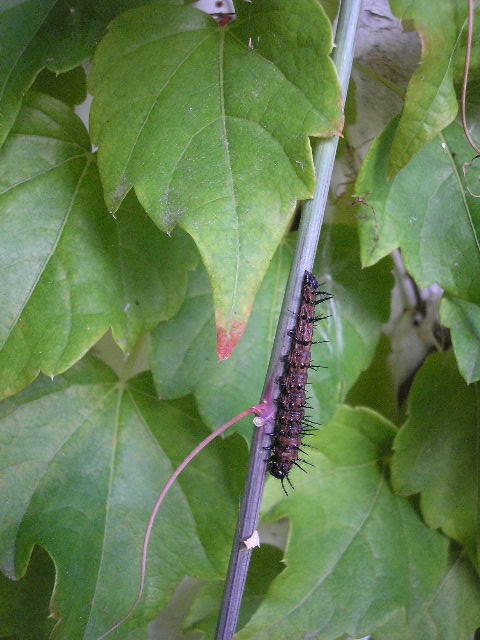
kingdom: Animalia
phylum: Arthropoda
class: Insecta
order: Lepidoptera
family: Nymphalidae
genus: Dione
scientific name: Dione vanillae
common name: Gulf fritillary
